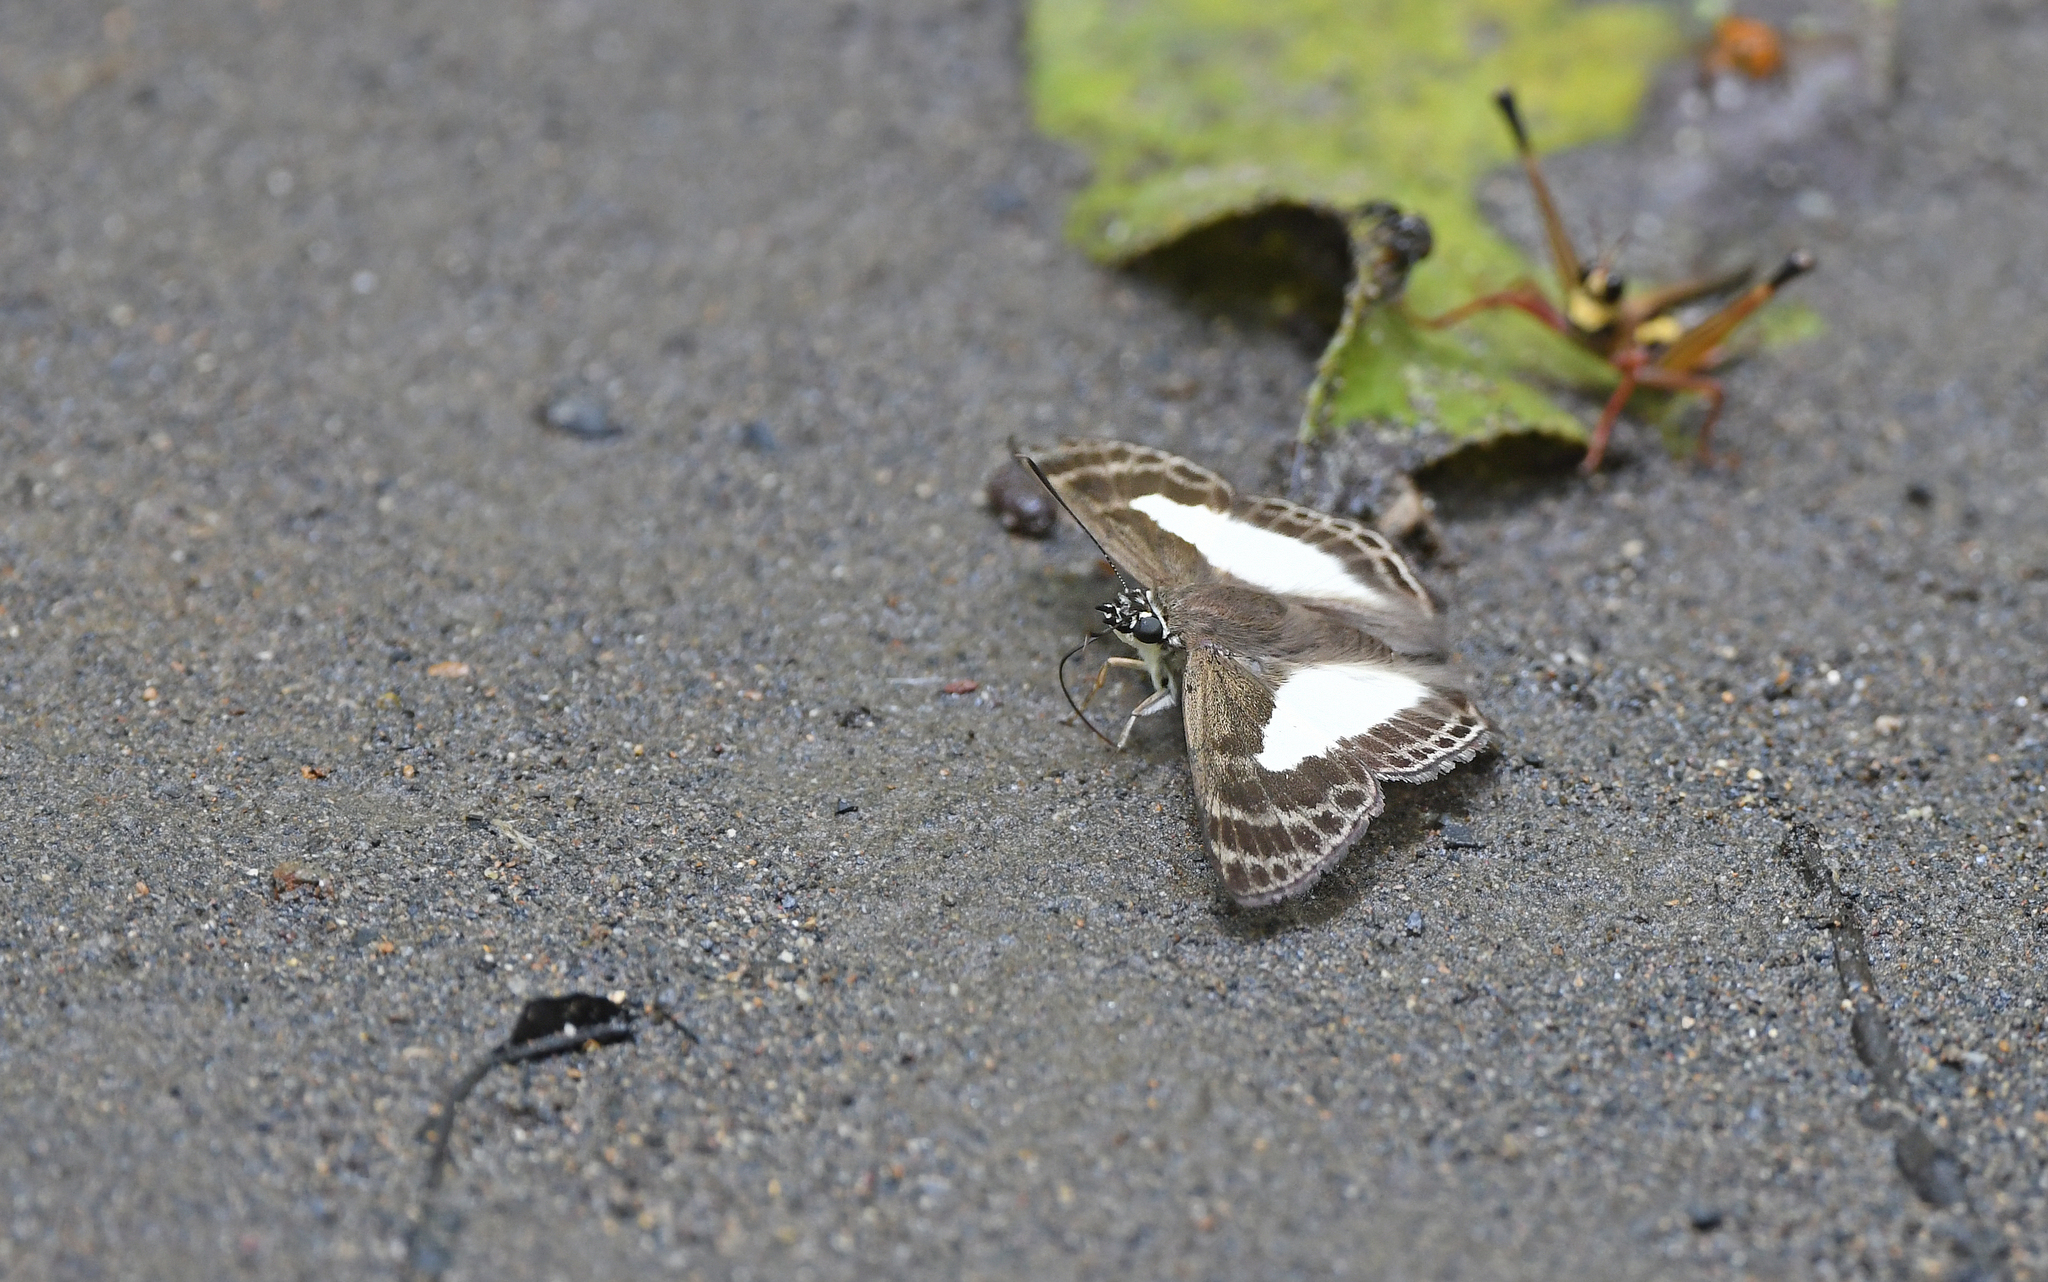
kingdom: Animalia
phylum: Arthropoda
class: Insecta
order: Lepidoptera
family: Hesperiidae
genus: Sophista
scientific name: Sophista aristoteles
